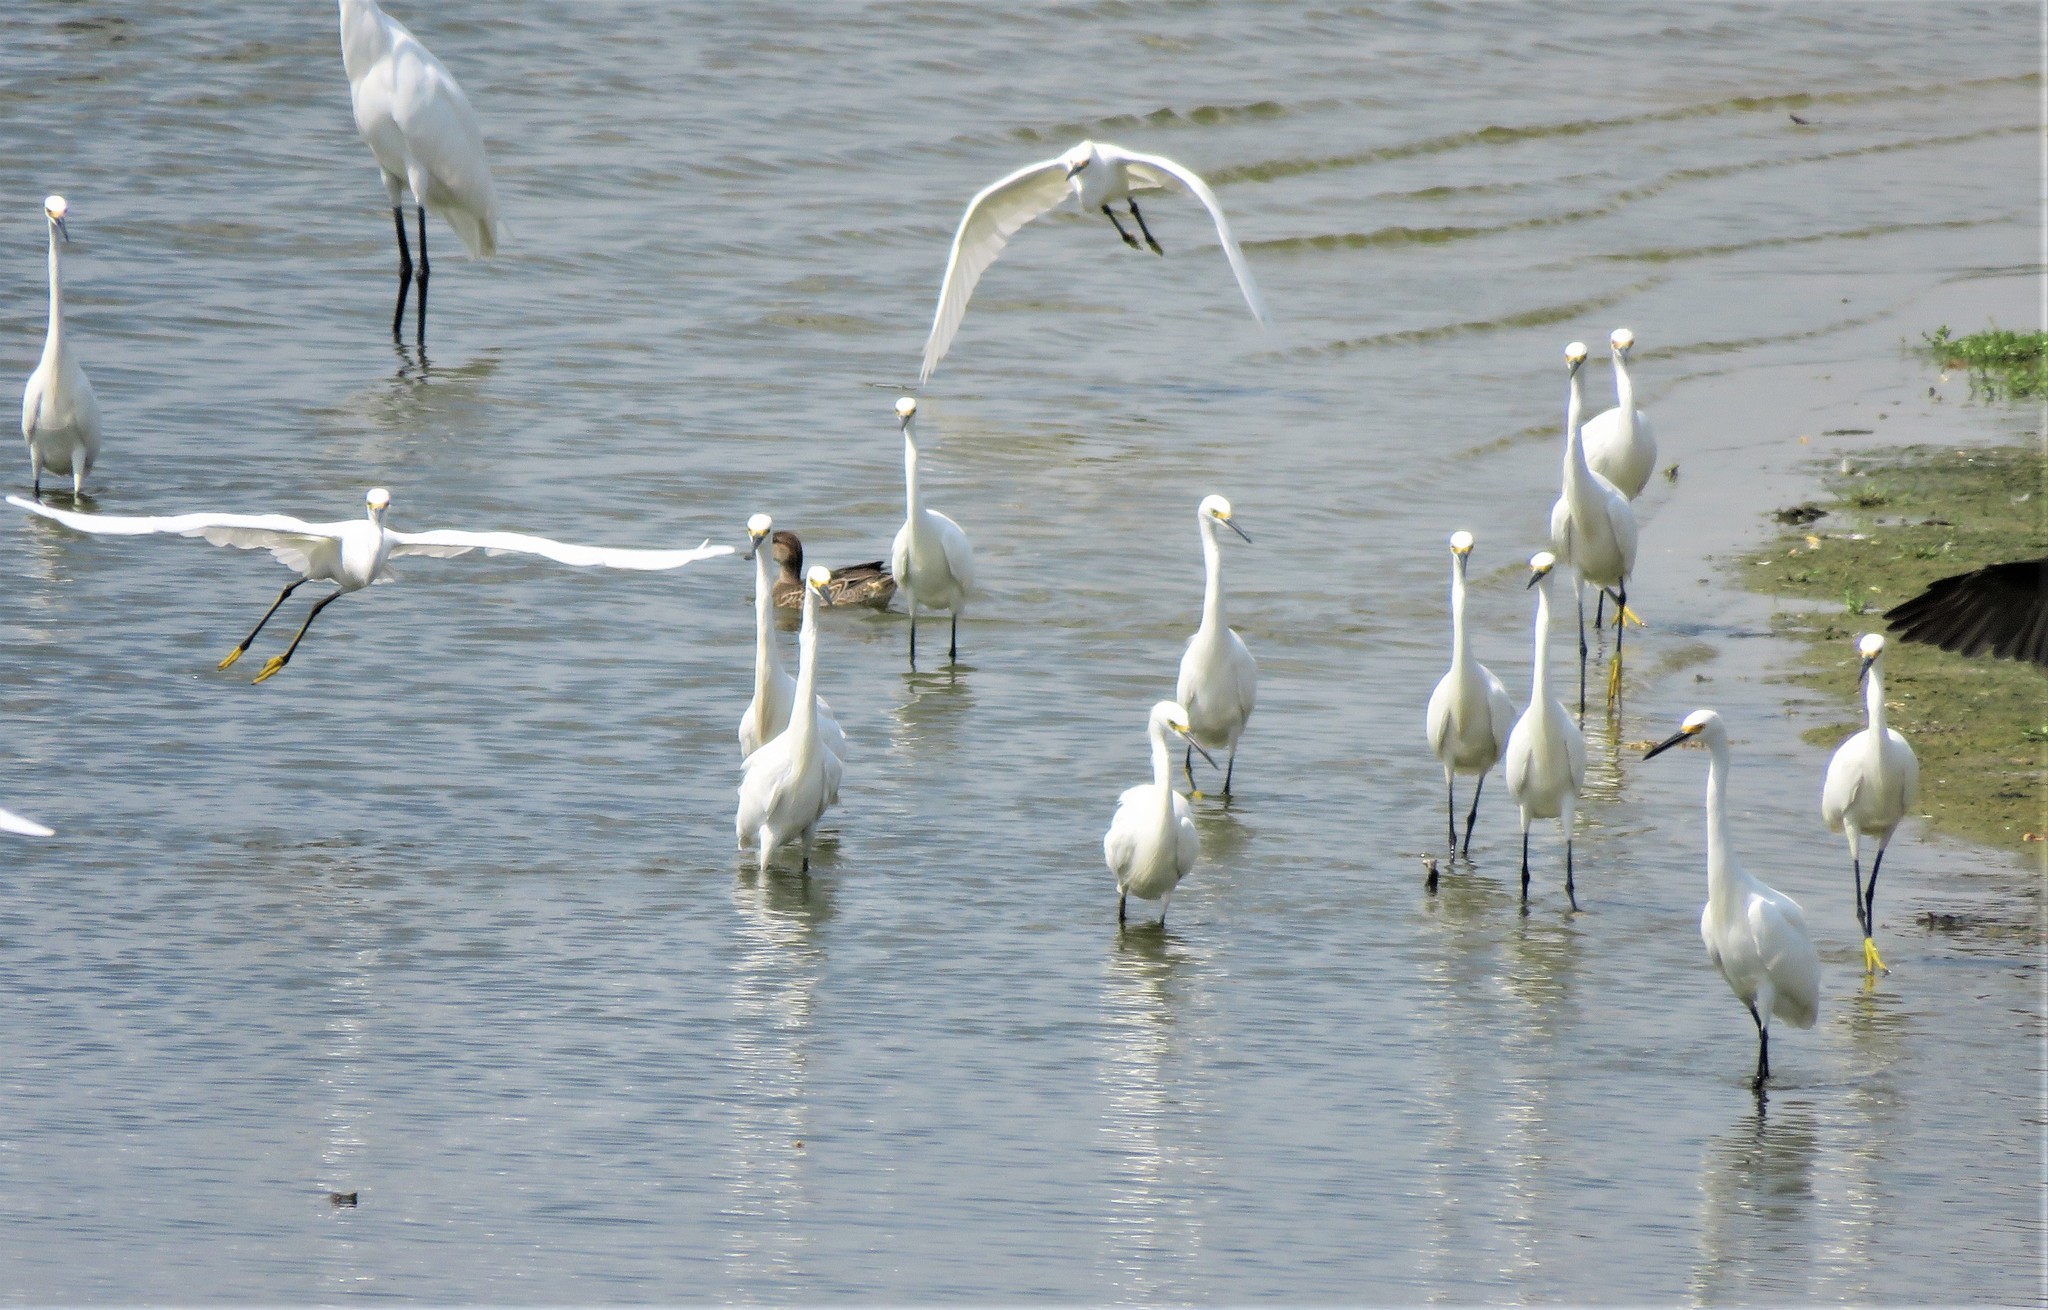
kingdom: Animalia
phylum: Chordata
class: Aves
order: Pelecaniformes
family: Ardeidae
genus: Egretta
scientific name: Egretta thula
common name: Snowy egret
